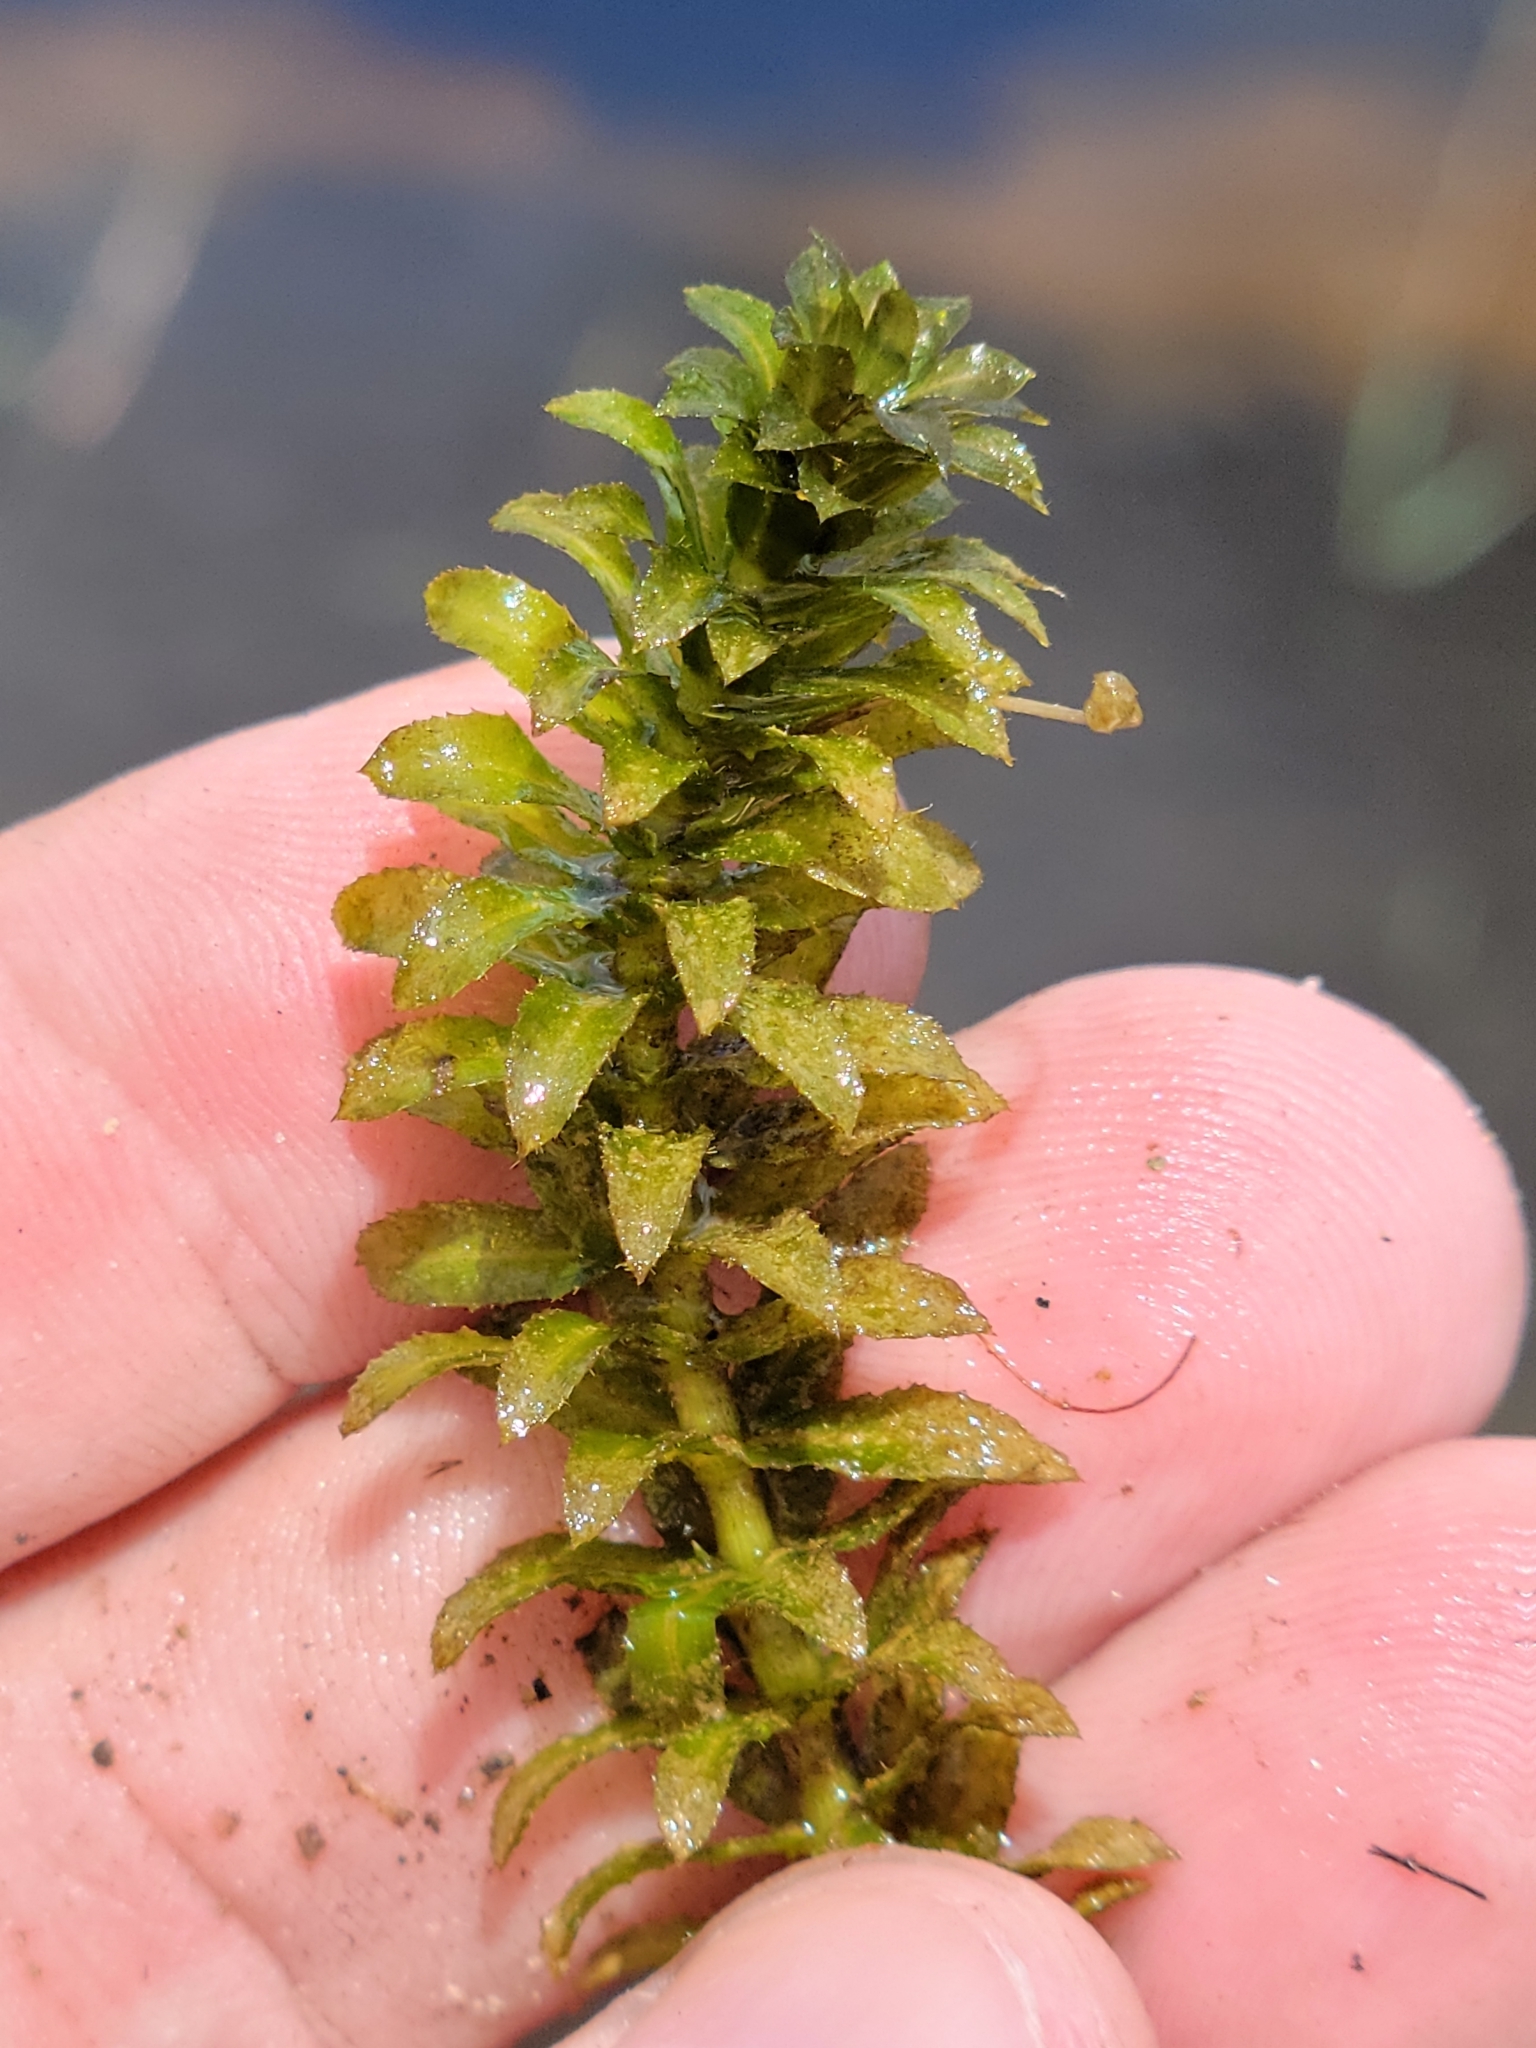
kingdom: Plantae
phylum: Tracheophyta
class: Liliopsida
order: Alismatales
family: Hydrocharitaceae
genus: Hydrilla
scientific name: Hydrilla verticillata
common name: Florida-elodea
